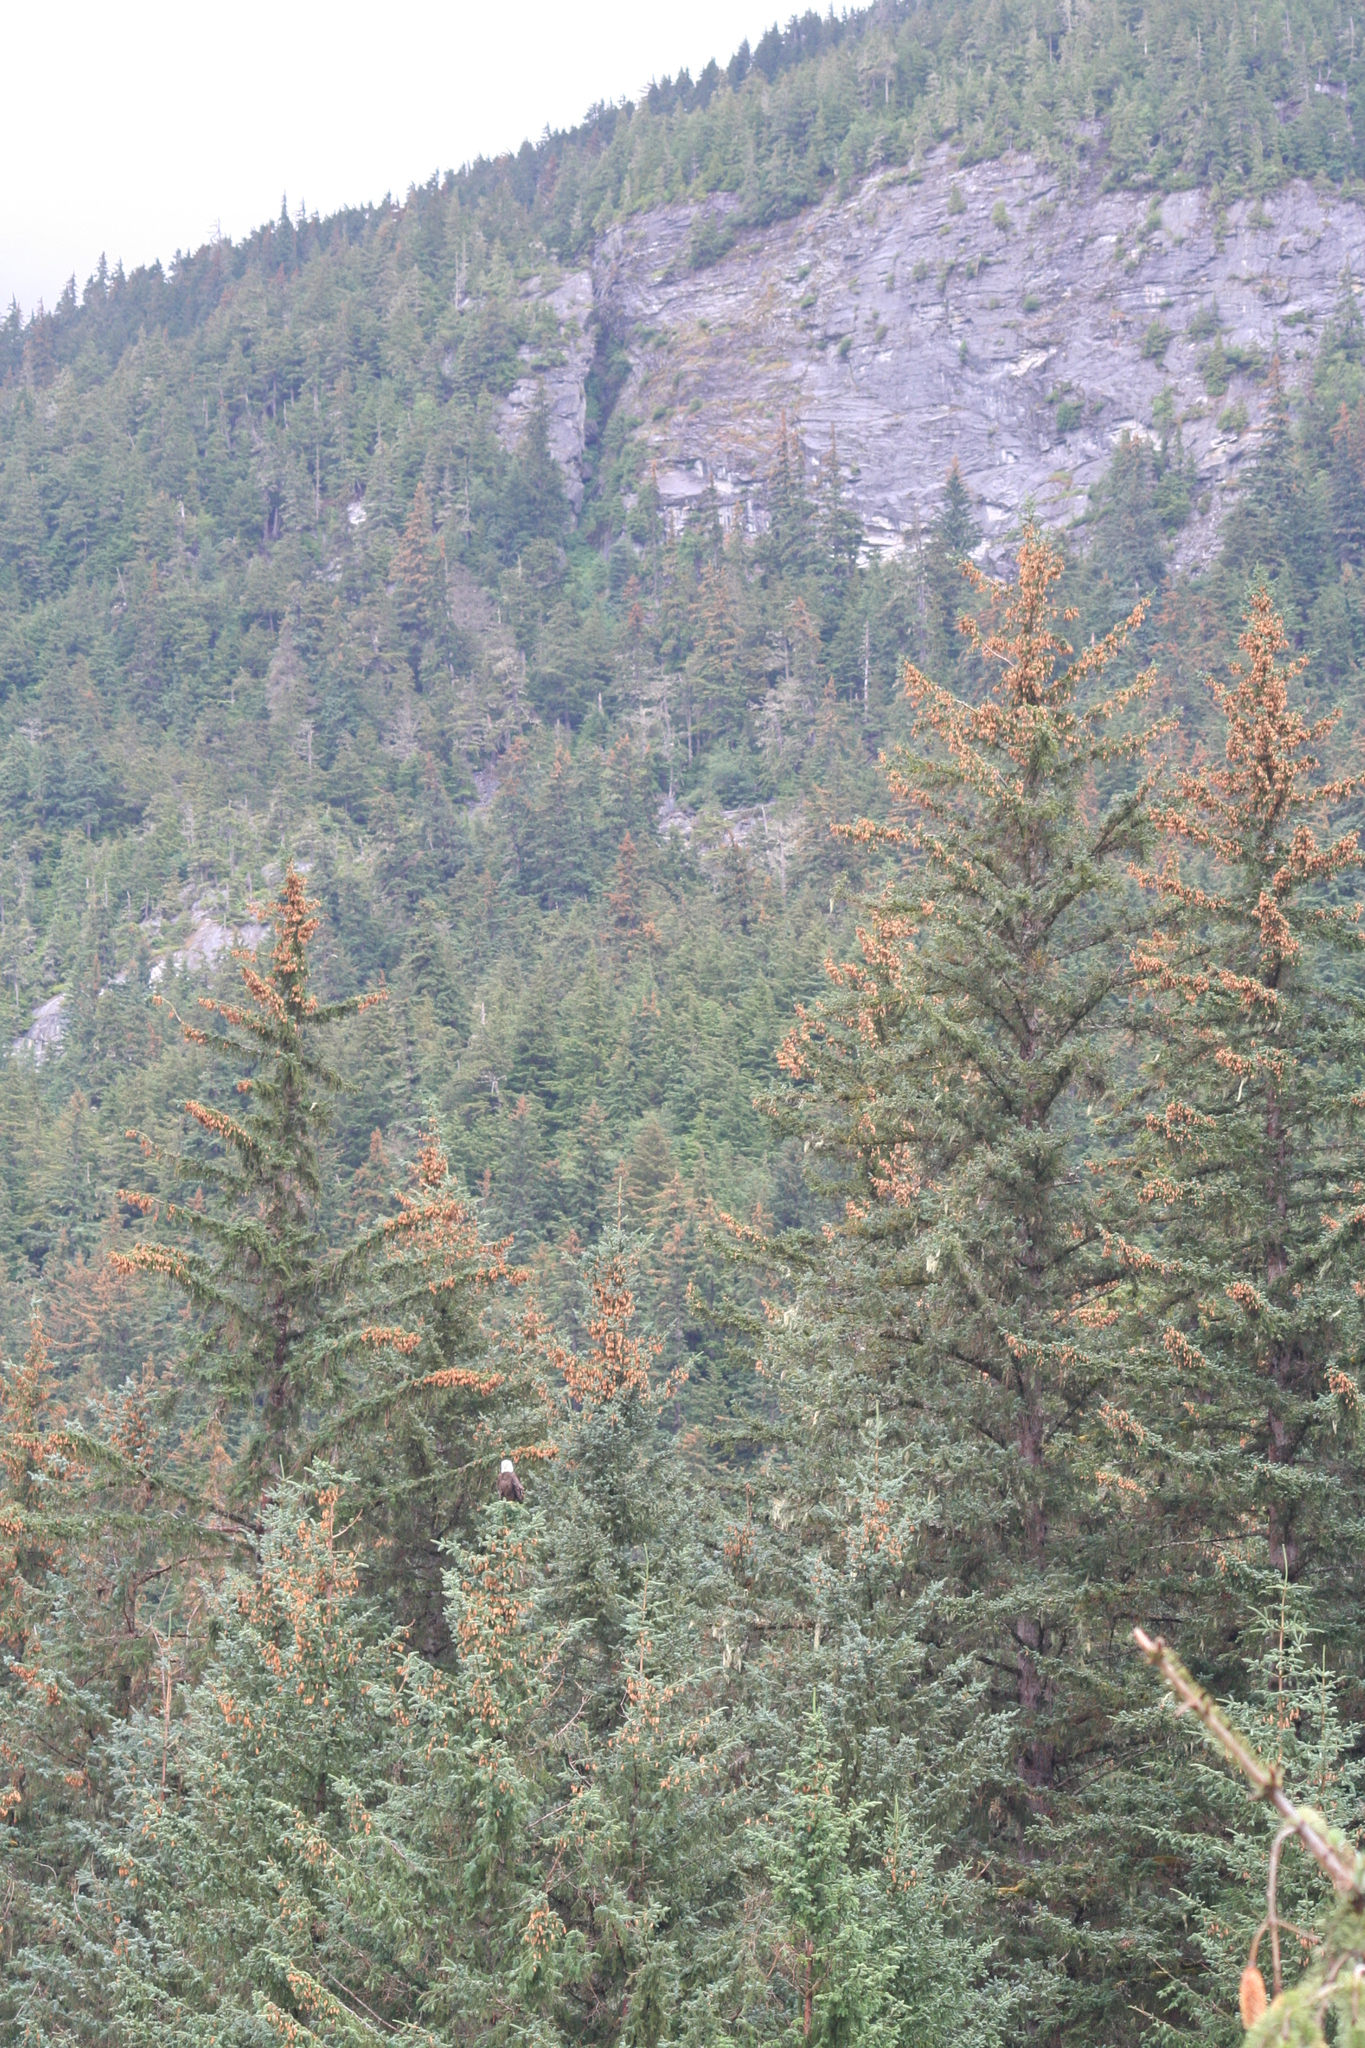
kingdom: Plantae
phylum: Tracheophyta
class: Pinopsida
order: Pinales
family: Pinaceae
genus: Picea
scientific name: Picea sitchensis
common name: Sitka spruce
